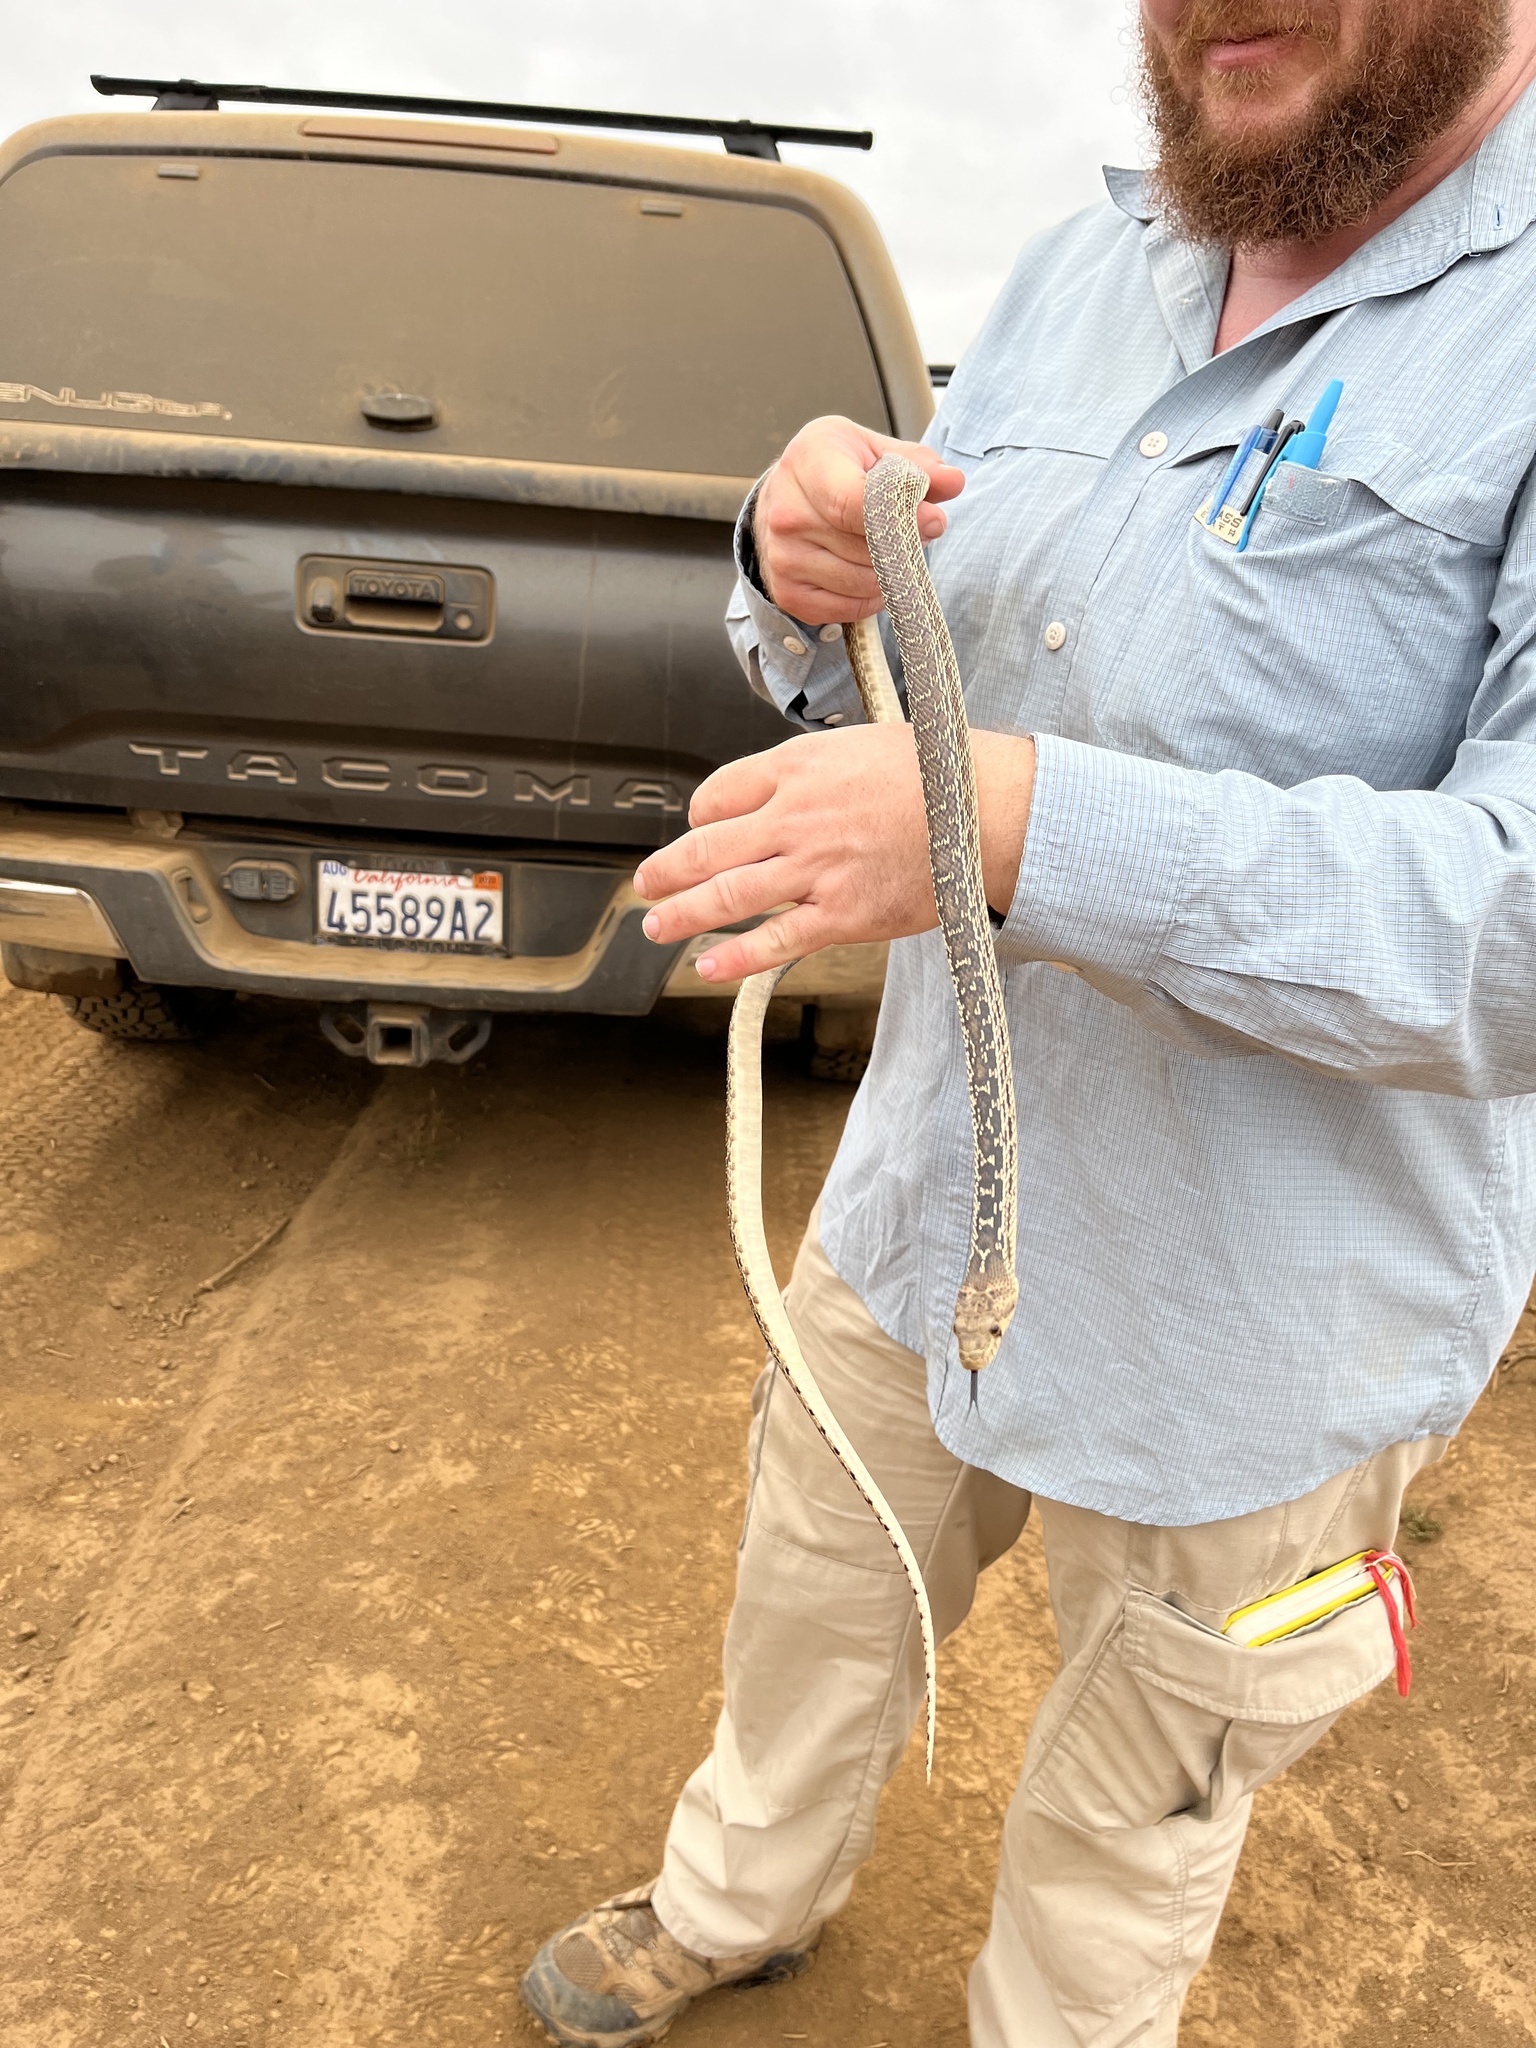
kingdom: Animalia
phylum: Chordata
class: Squamata
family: Colubridae
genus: Pituophis
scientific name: Pituophis catenifer
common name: Gopher snake
